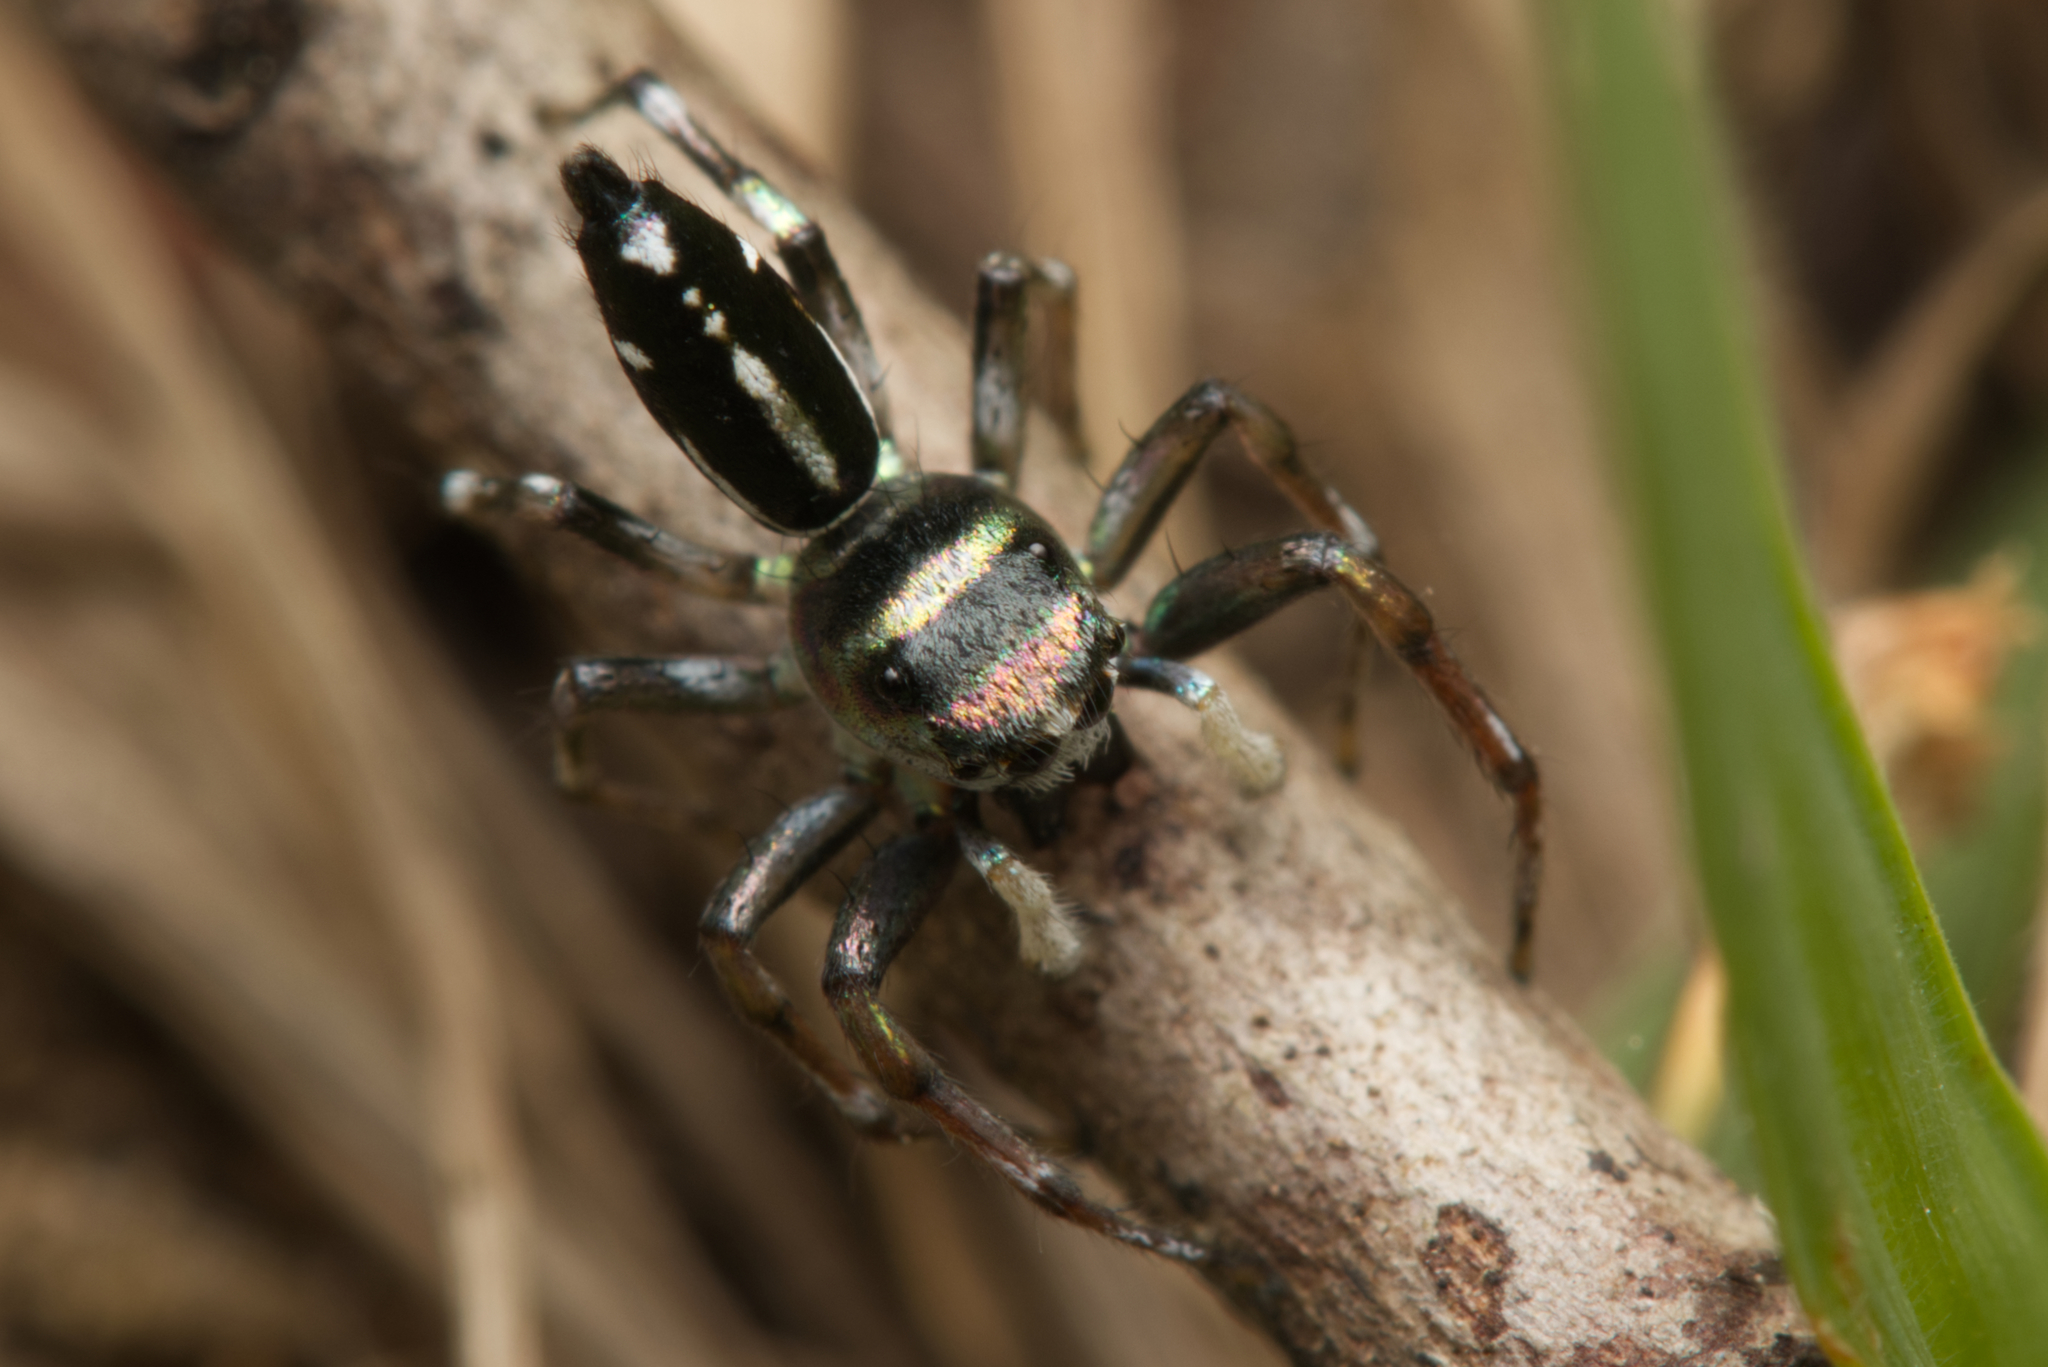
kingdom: Animalia
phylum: Arthropoda
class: Arachnida
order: Araneae
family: Salticidae
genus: Cosmophasis
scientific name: Cosmophasis thalassina
